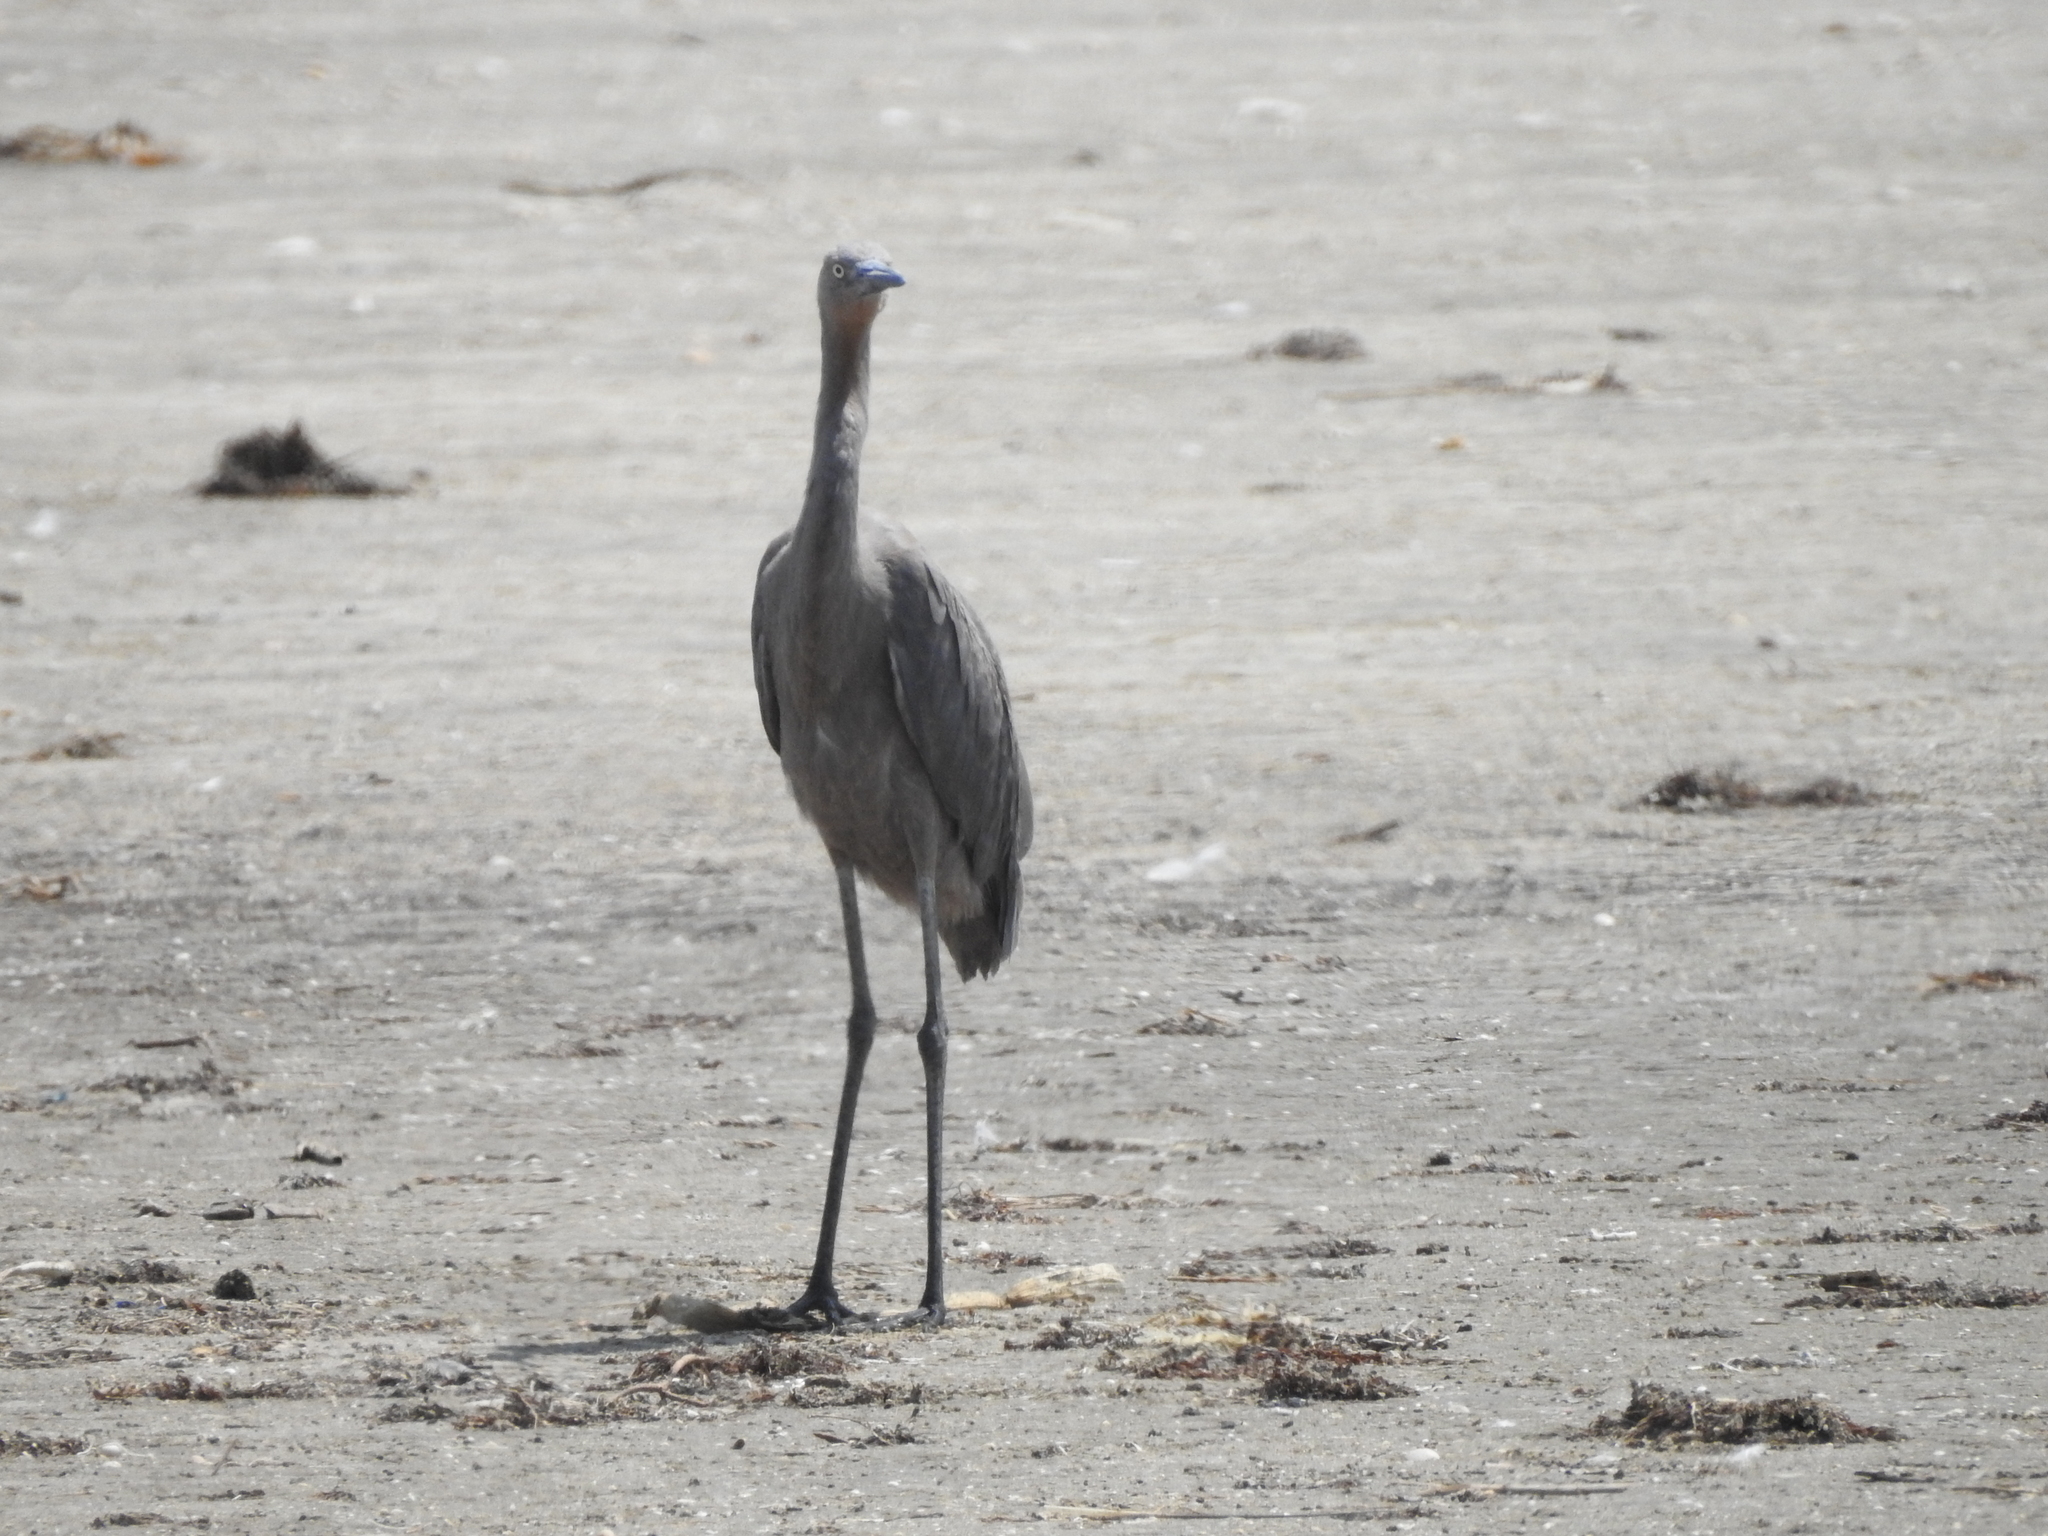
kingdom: Animalia
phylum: Chordata
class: Aves
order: Pelecaniformes
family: Ardeidae
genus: Egretta
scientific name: Egretta rufescens
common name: Reddish egret
